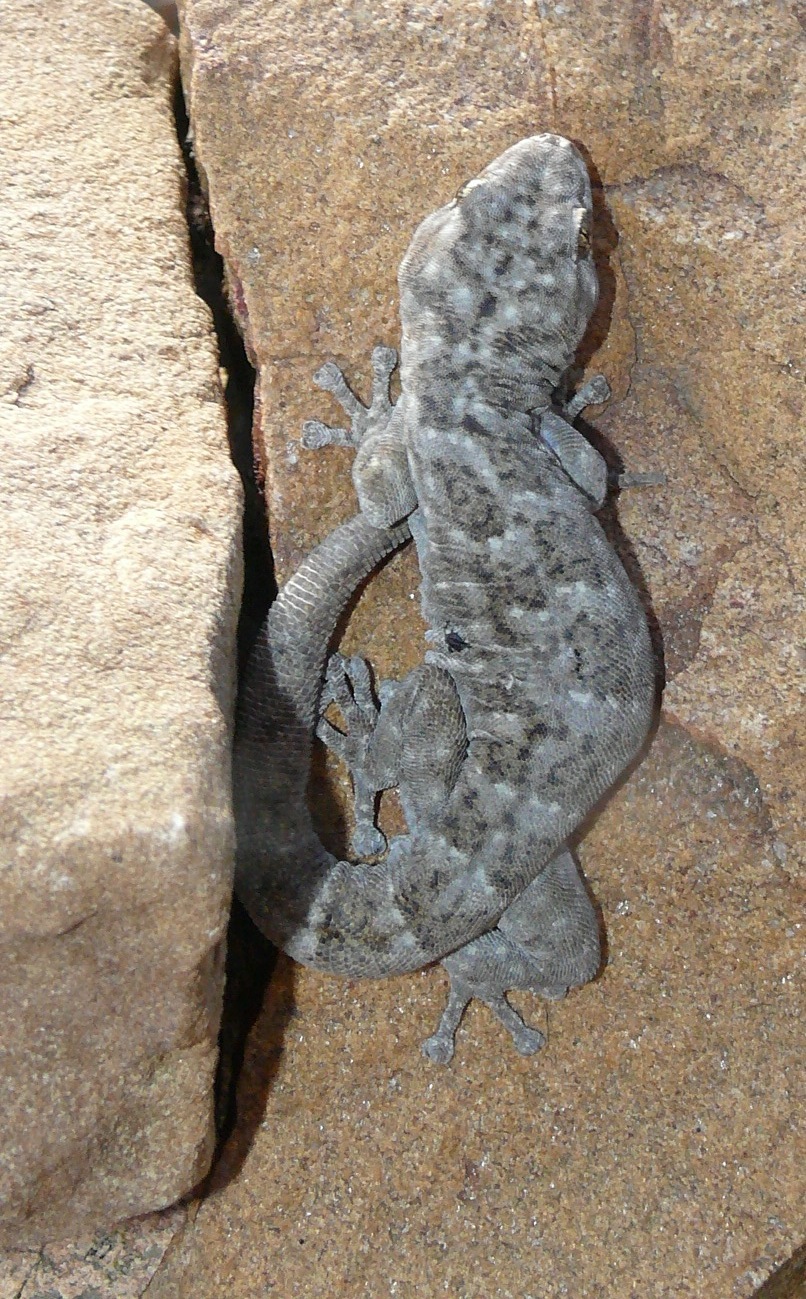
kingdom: Animalia
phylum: Chordata
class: Squamata
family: Gekkonidae
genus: Goggia
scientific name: Goggia microlepidota
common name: Small-scaled leaf-toed lecko
